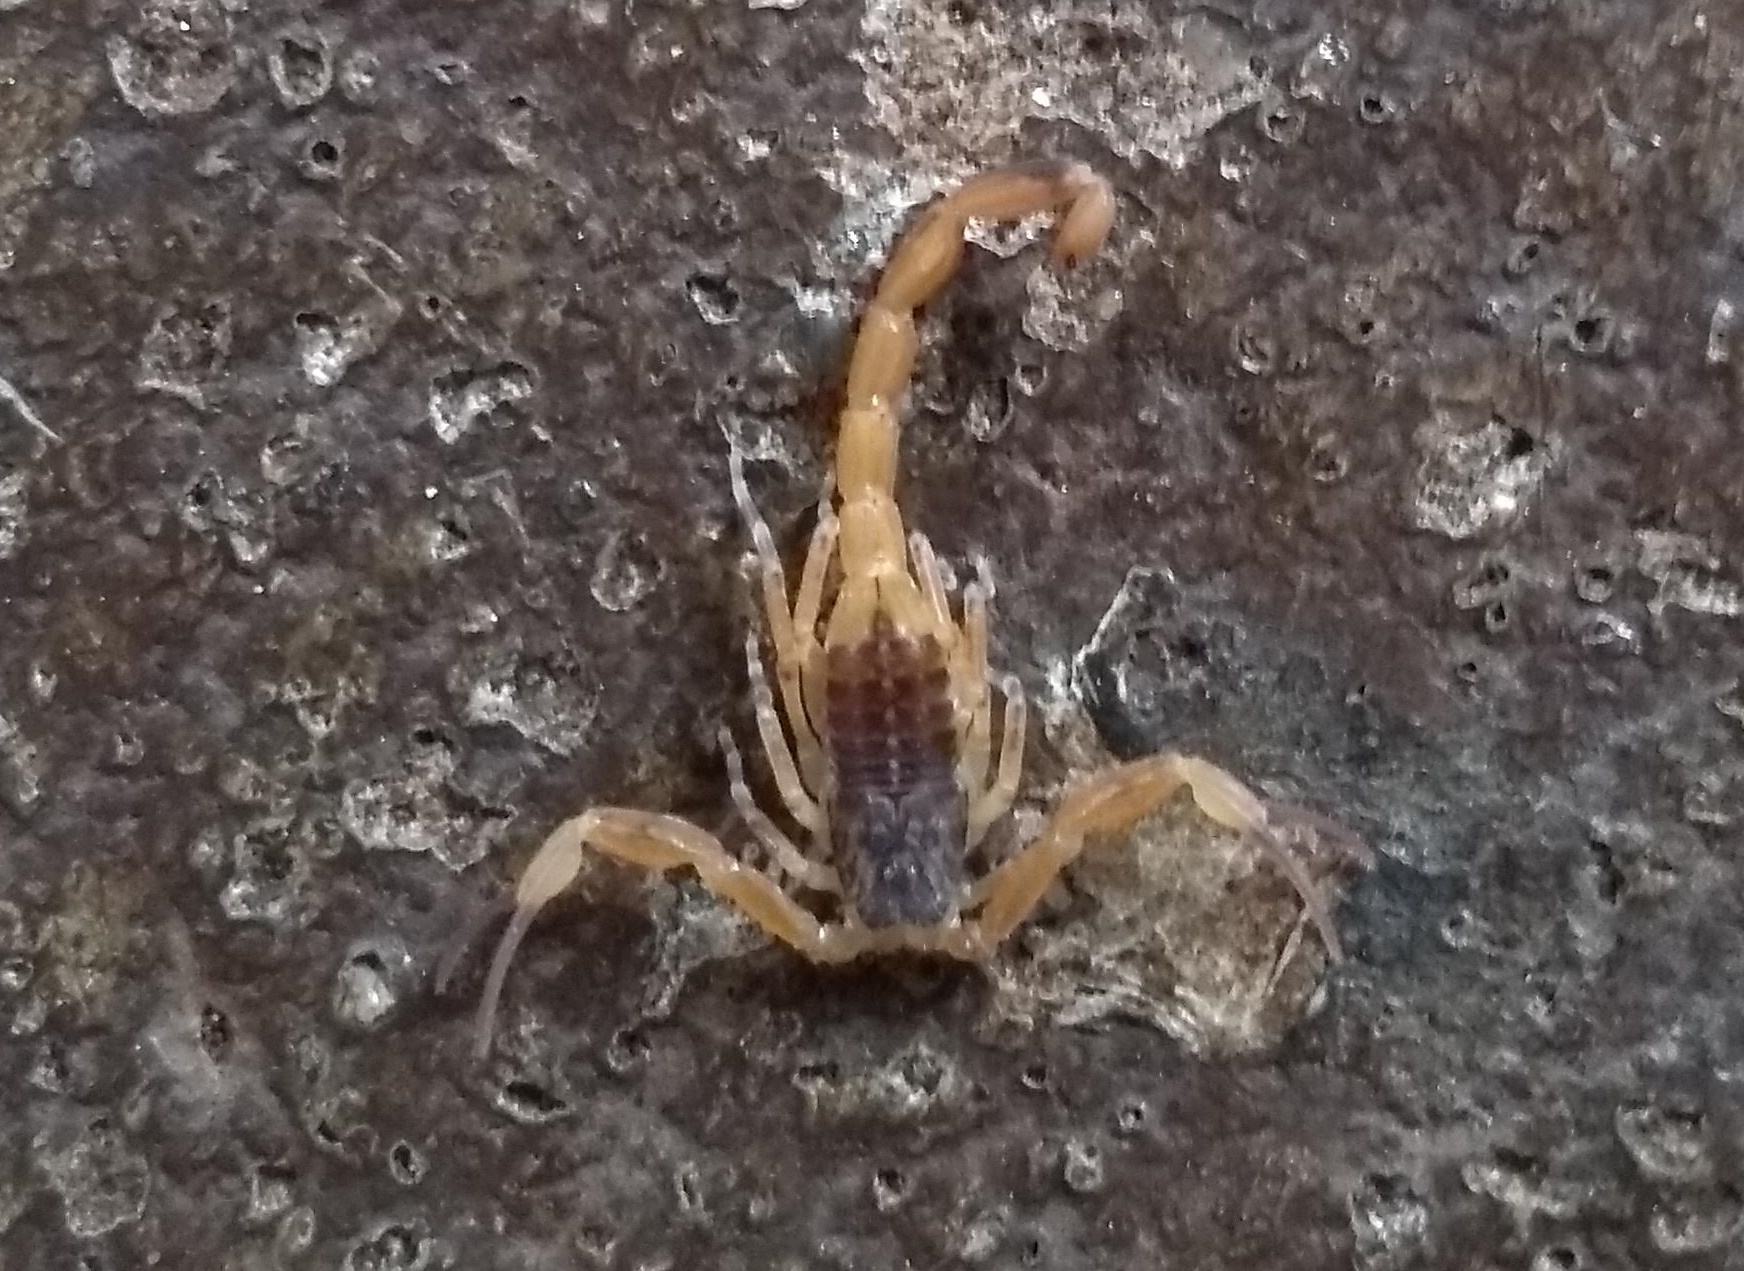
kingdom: Animalia
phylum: Arthropoda
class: Arachnida
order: Scorpiones
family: Buthidae
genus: Tityus
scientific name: Tityus serrulatus
